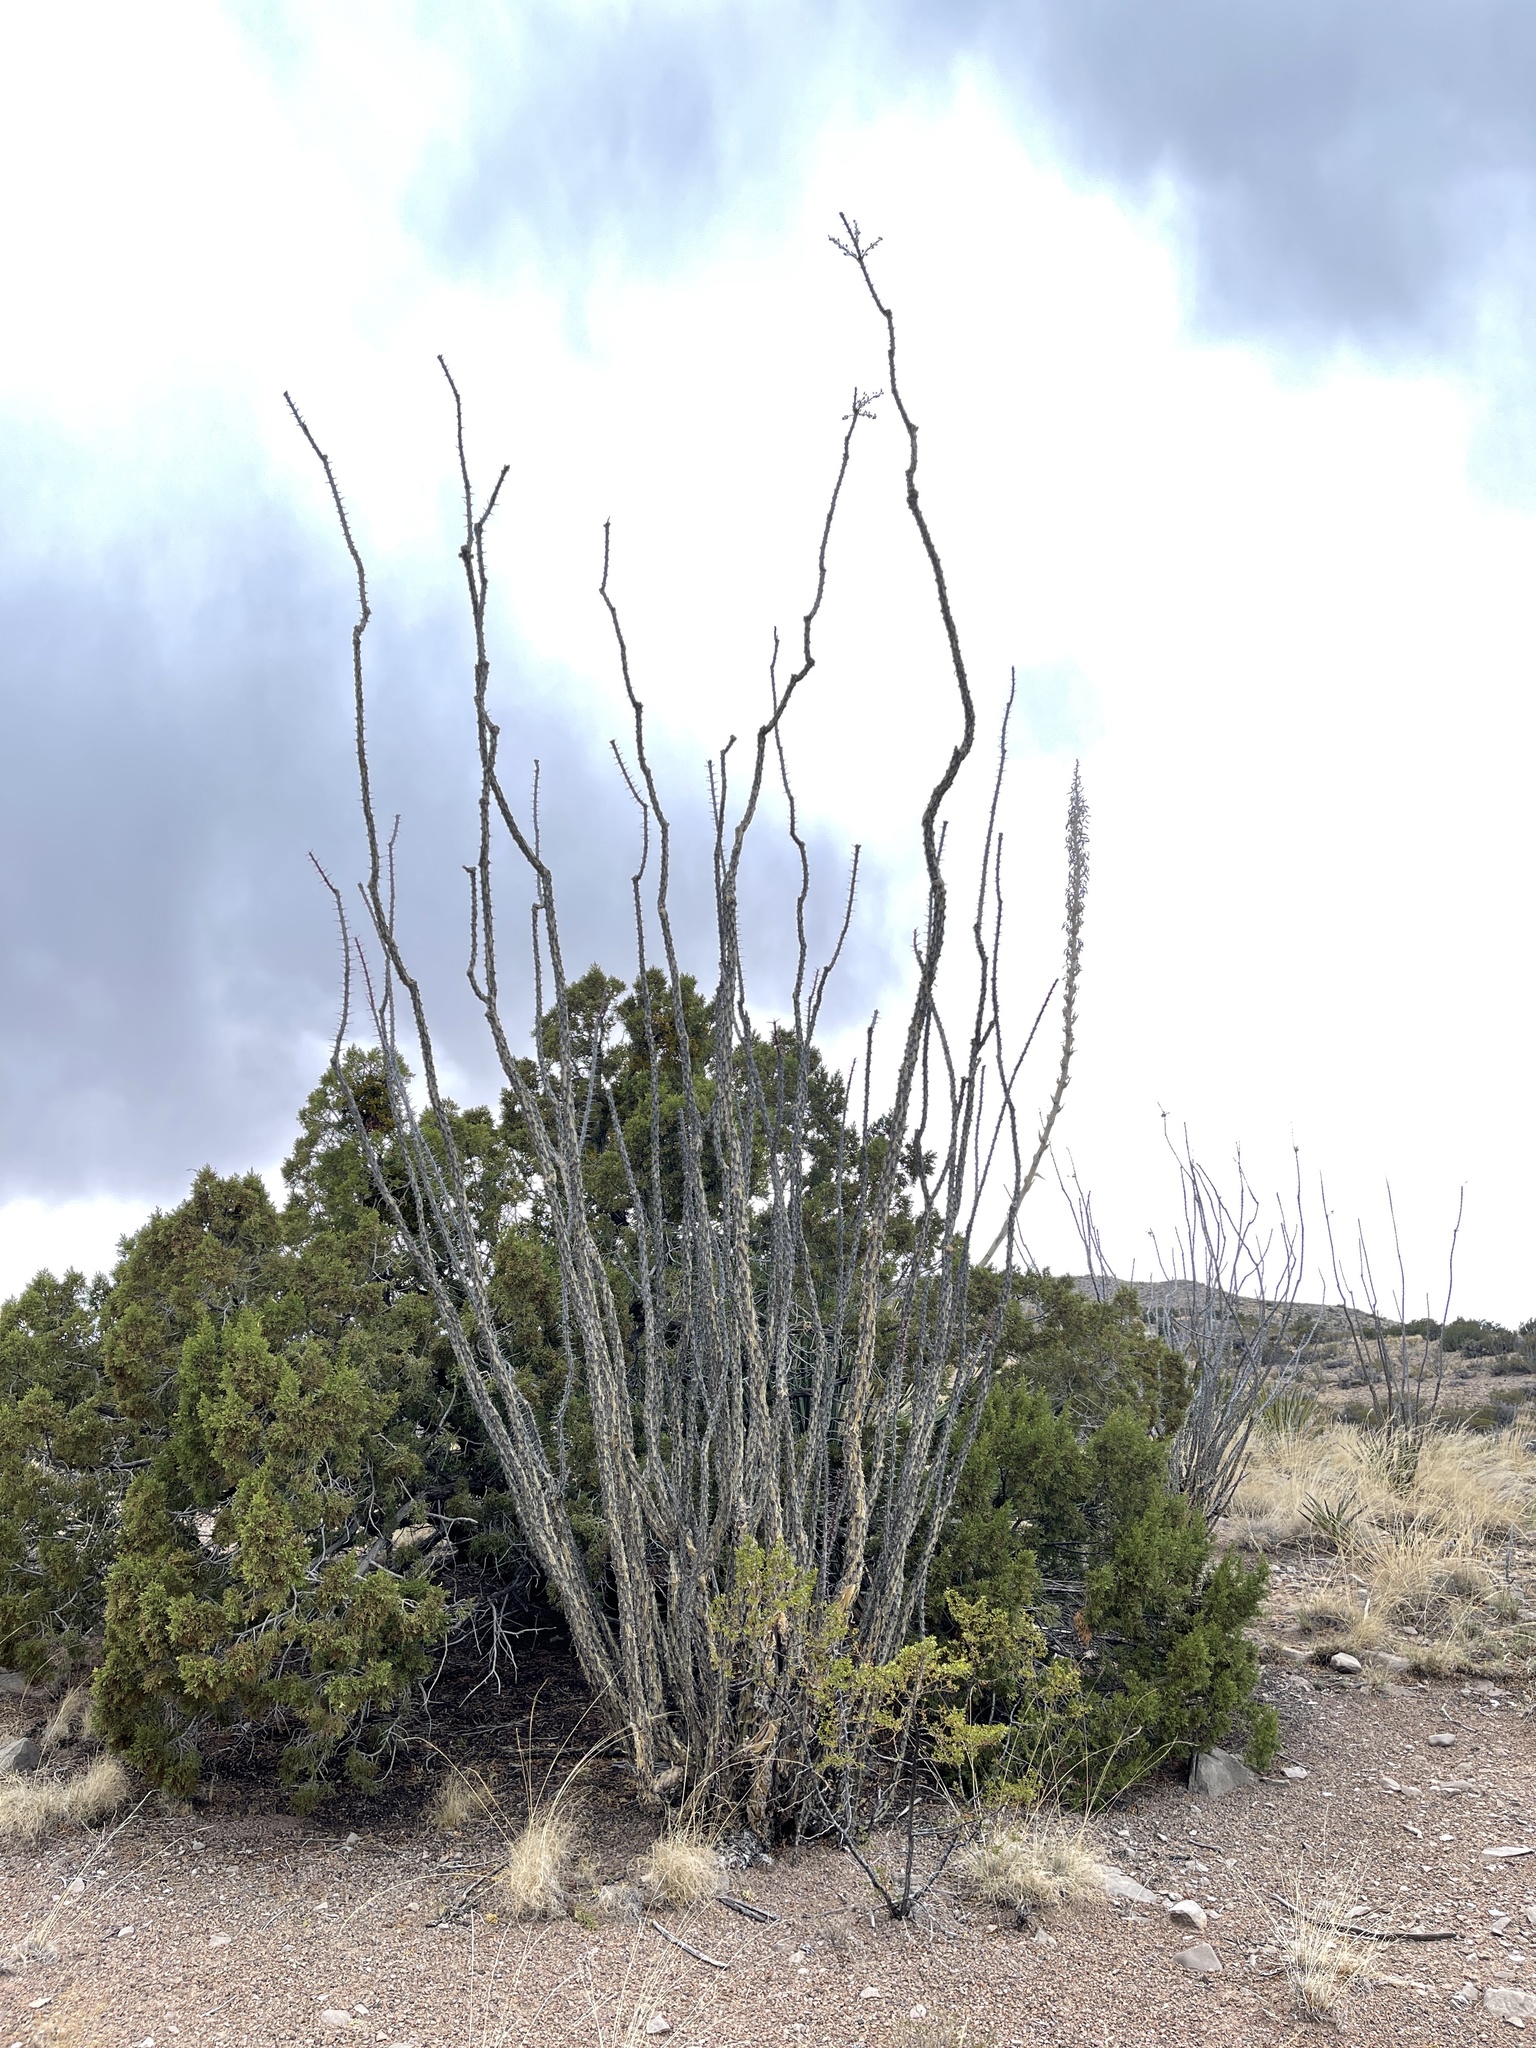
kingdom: Plantae
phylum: Tracheophyta
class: Magnoliopsida
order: Ericales
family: Fouquieriaceae
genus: Fouquieria
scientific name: Fouquieria splendens
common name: Vine-cactus
